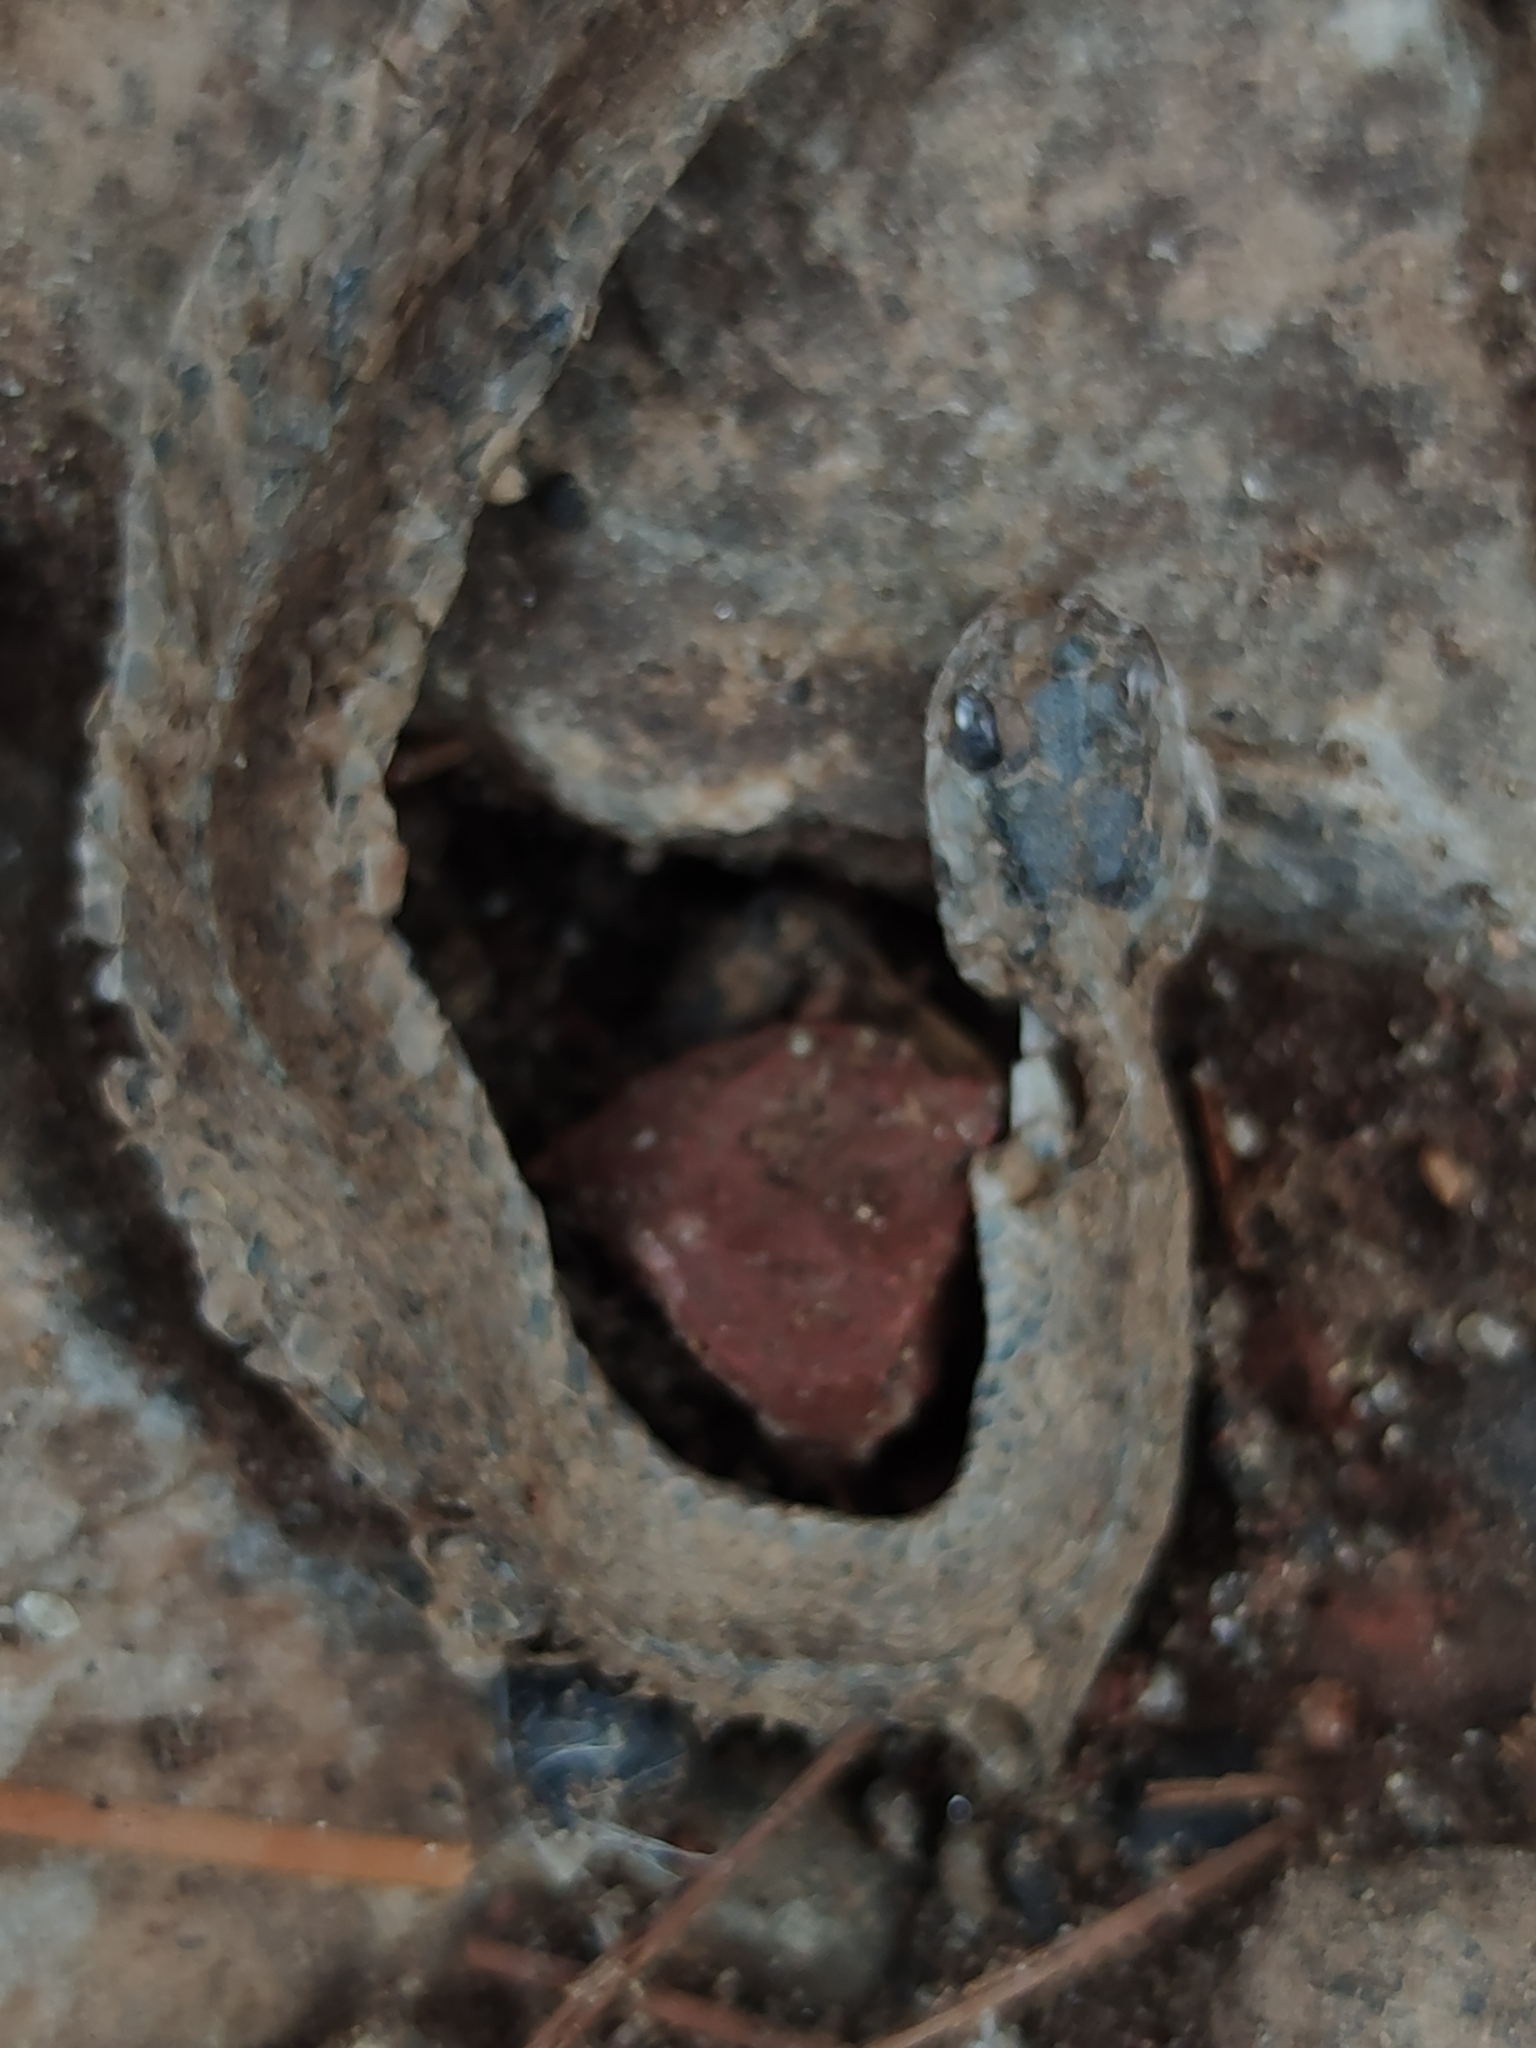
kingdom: Animalia
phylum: Chordata
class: Squamata
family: Colubridae
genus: Storeria
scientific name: Storeria storerioides
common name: Mexican brown snake
